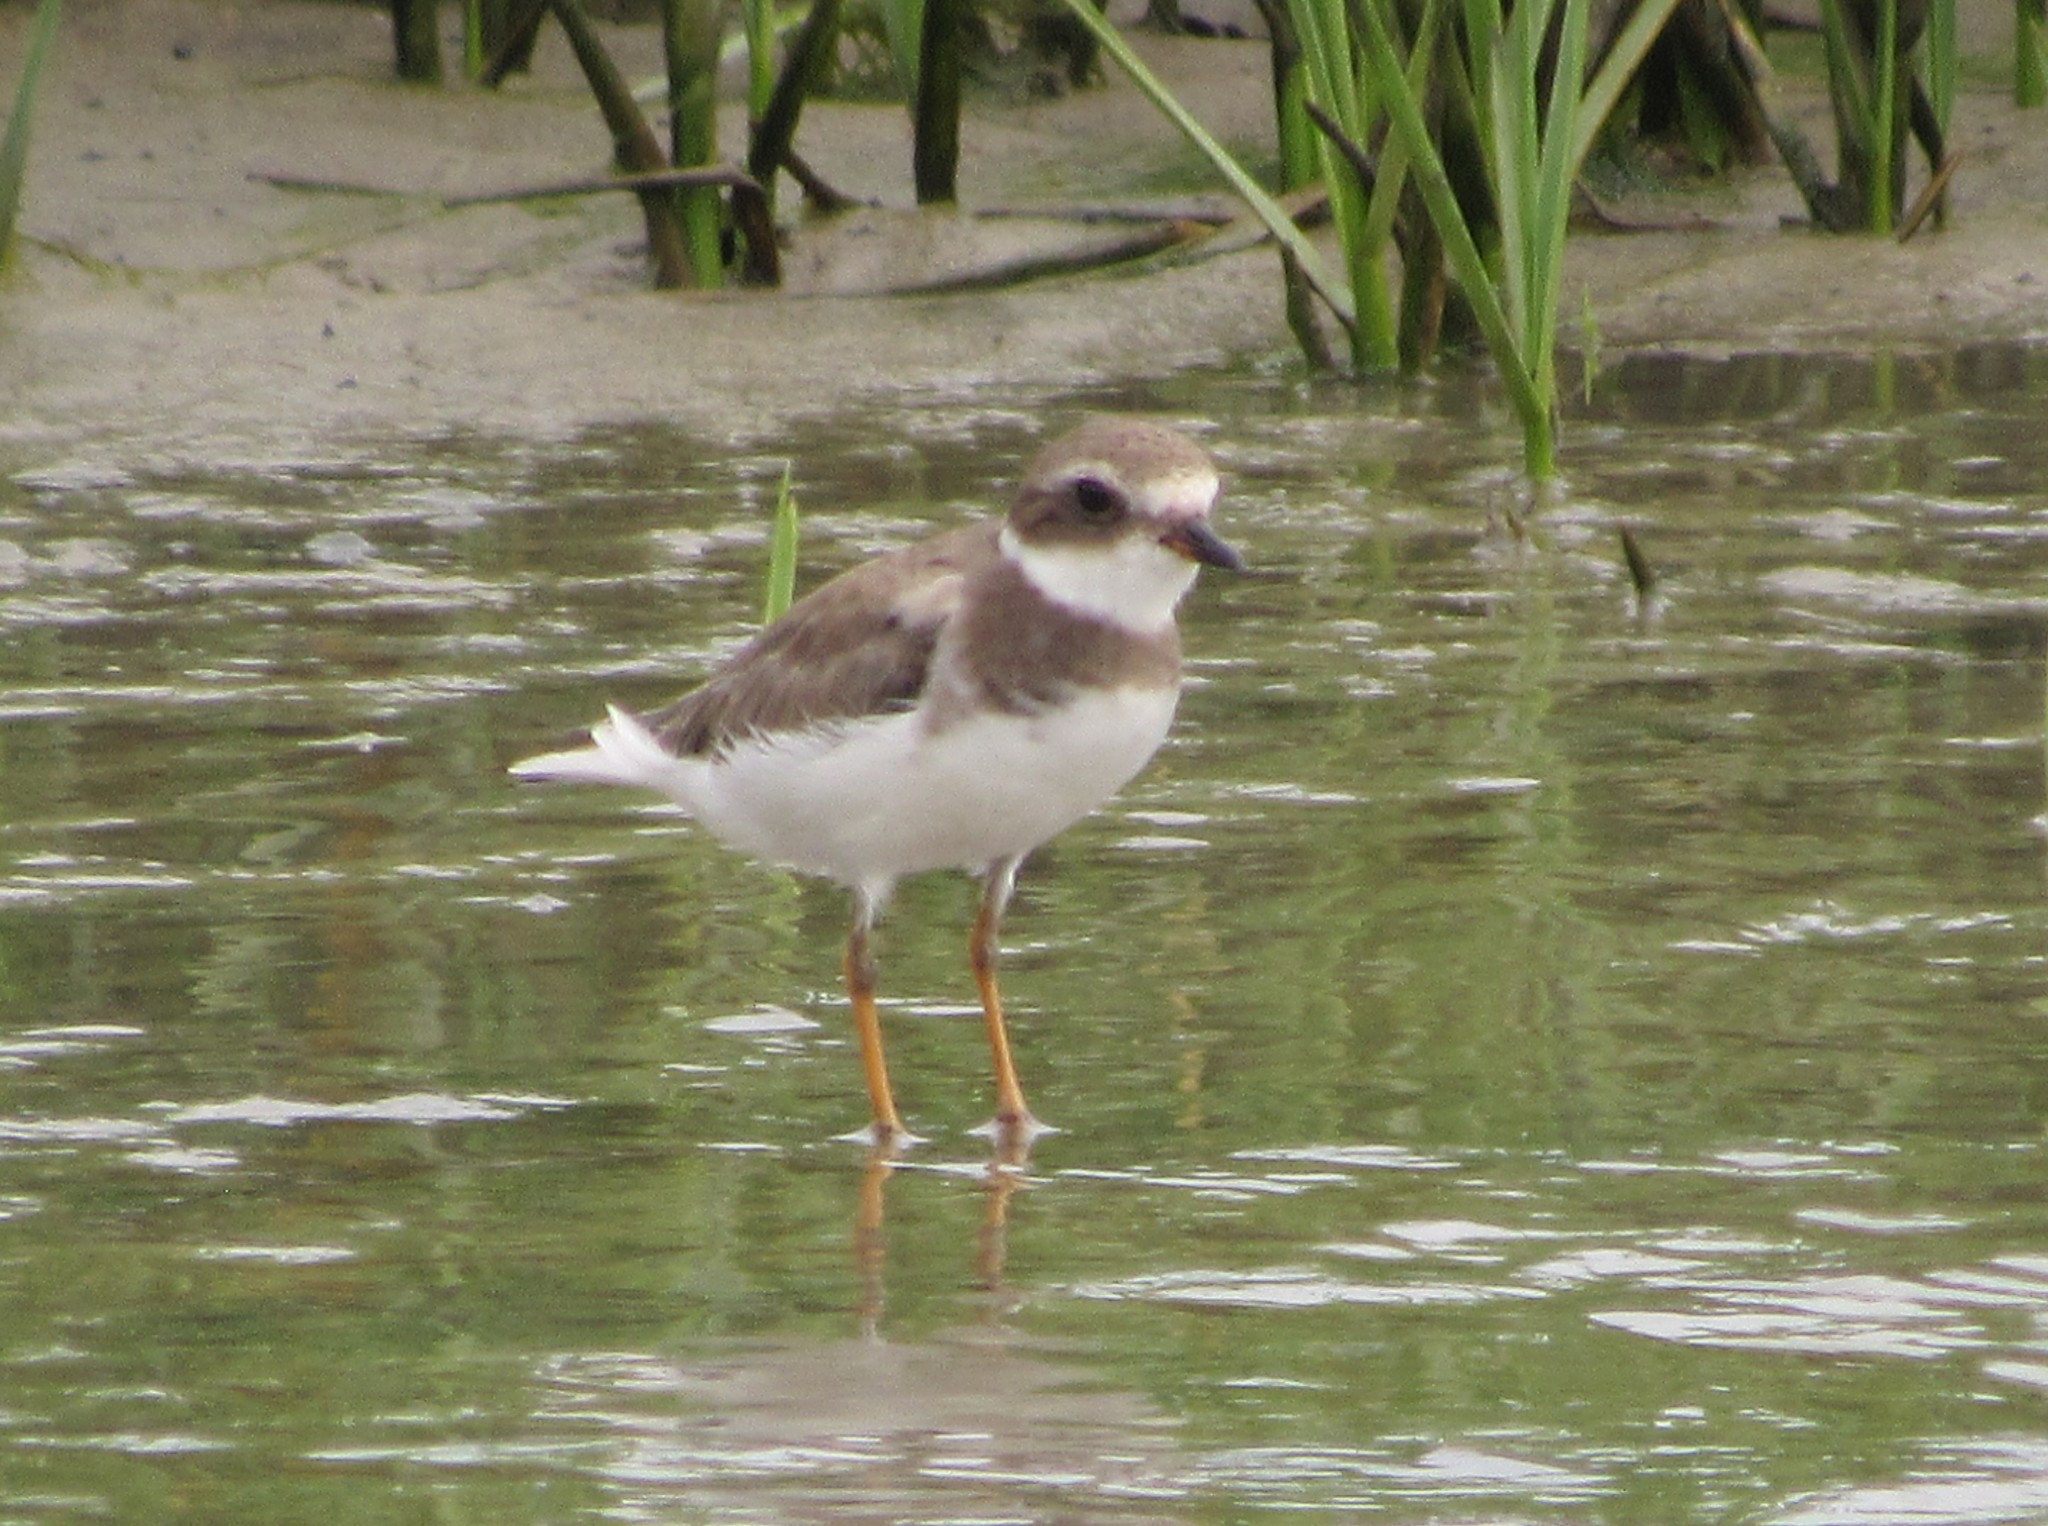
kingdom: Animalia
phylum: Chordata
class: Aves
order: Charadriiformes
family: Charadriidae
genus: Charadrius
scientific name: Charadrius semipalmatus
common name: Semipalmated plover
